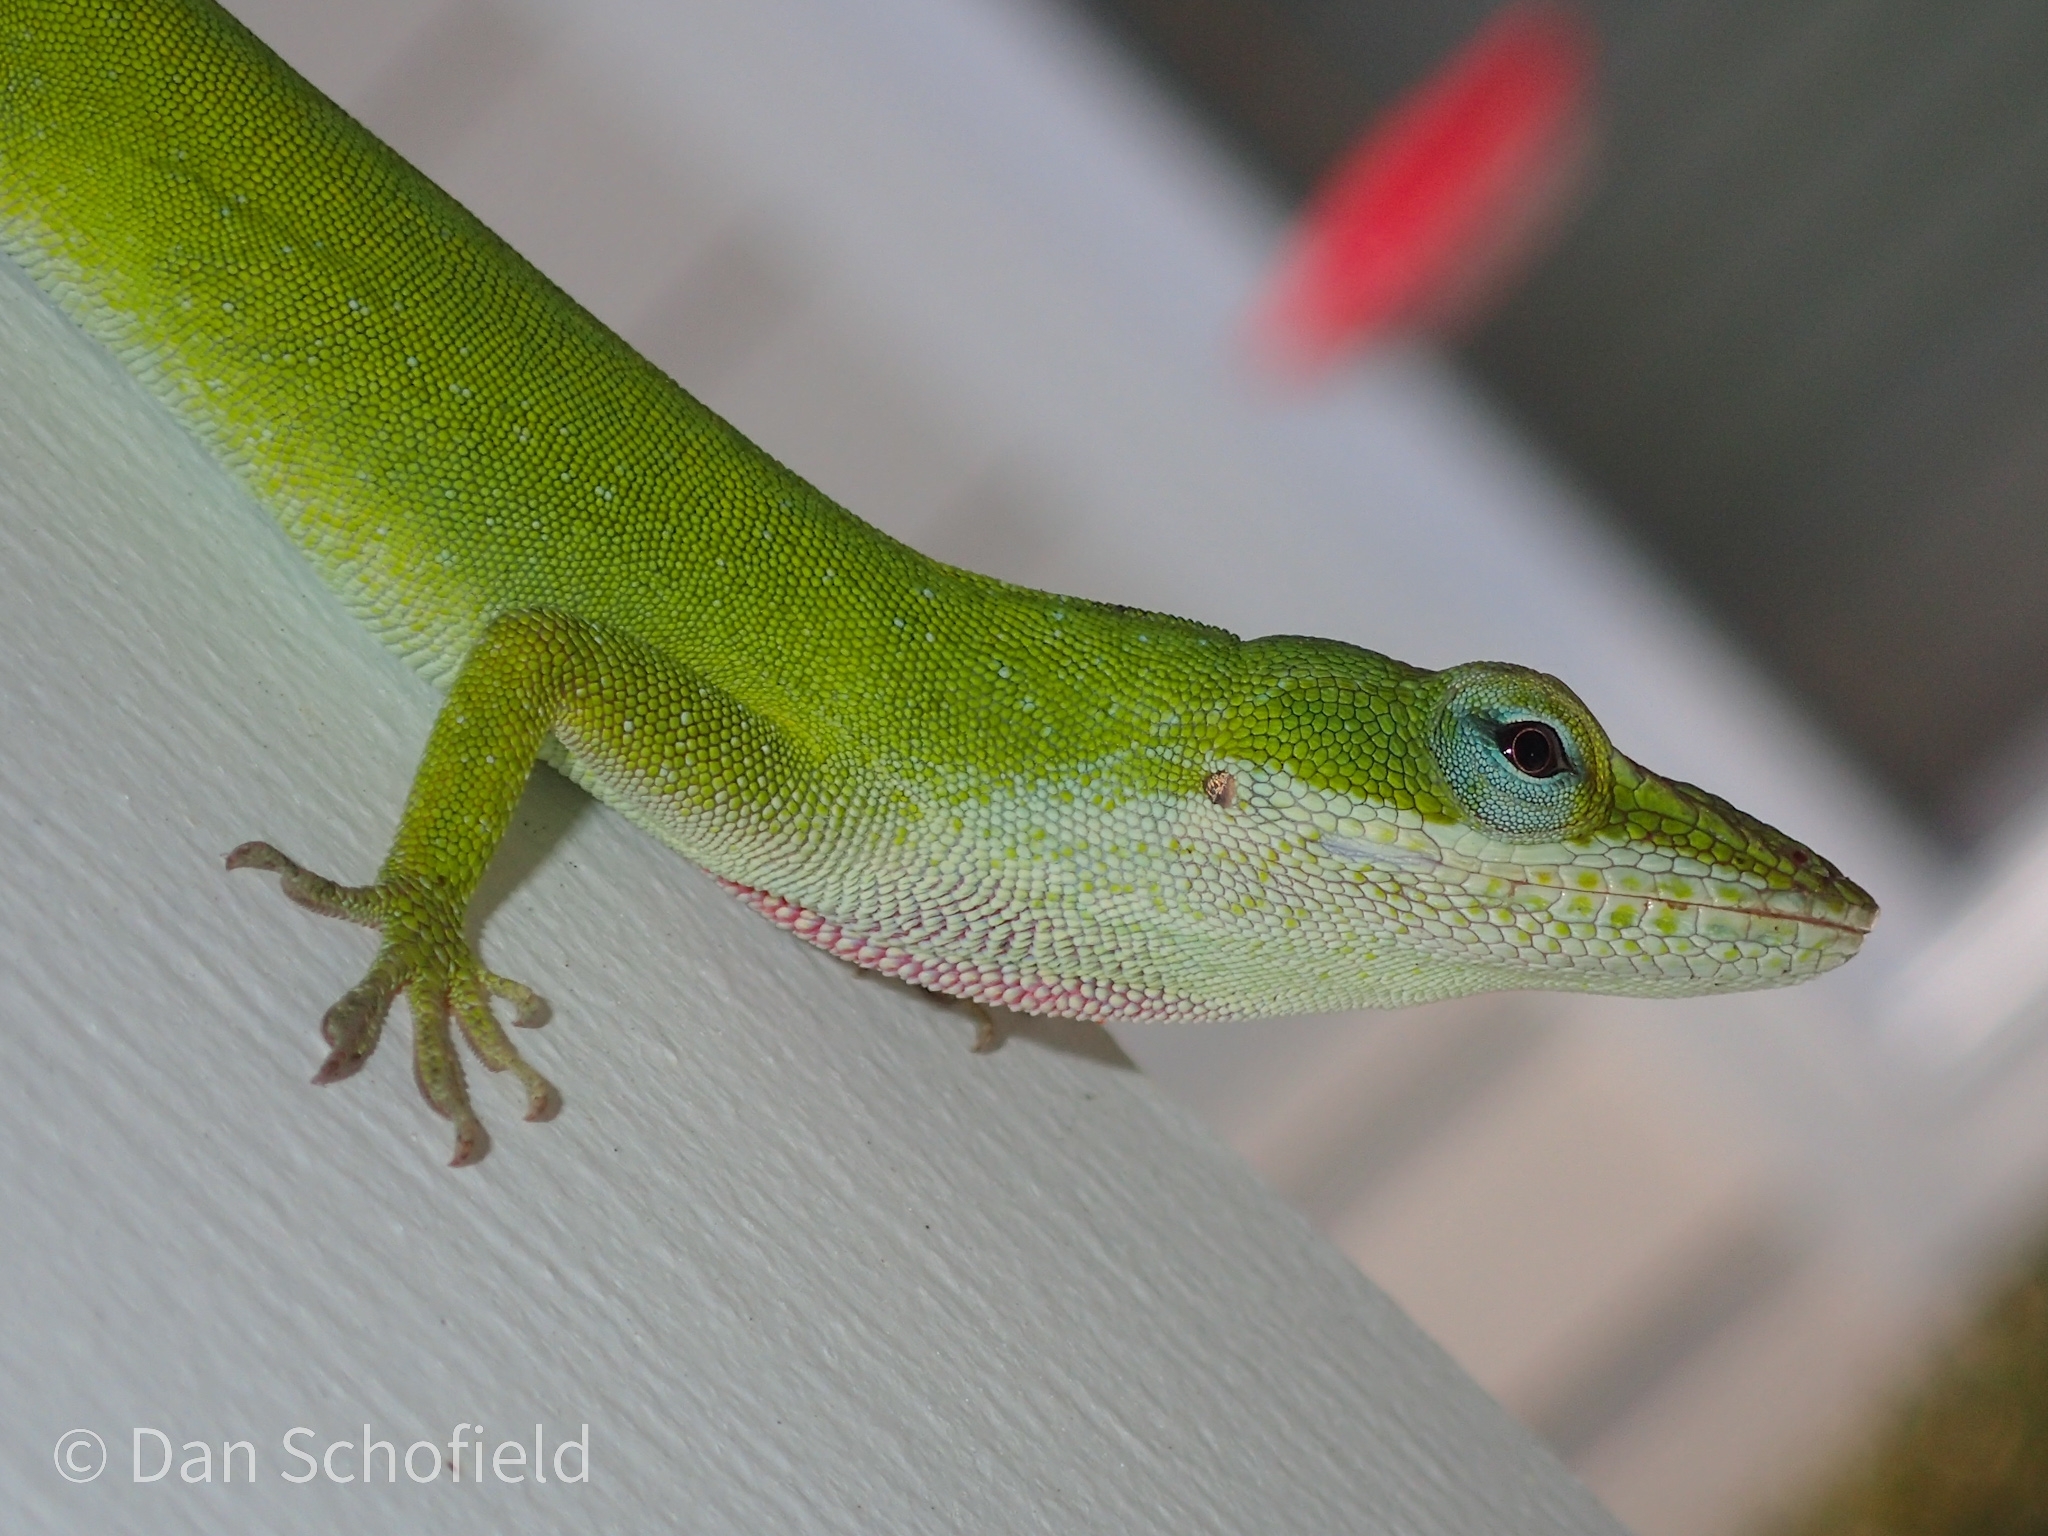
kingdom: Animalia
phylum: Chordata
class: Squamata
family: Dactyloidae
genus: Anolis
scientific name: Anolis carolinensis
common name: Green anole
